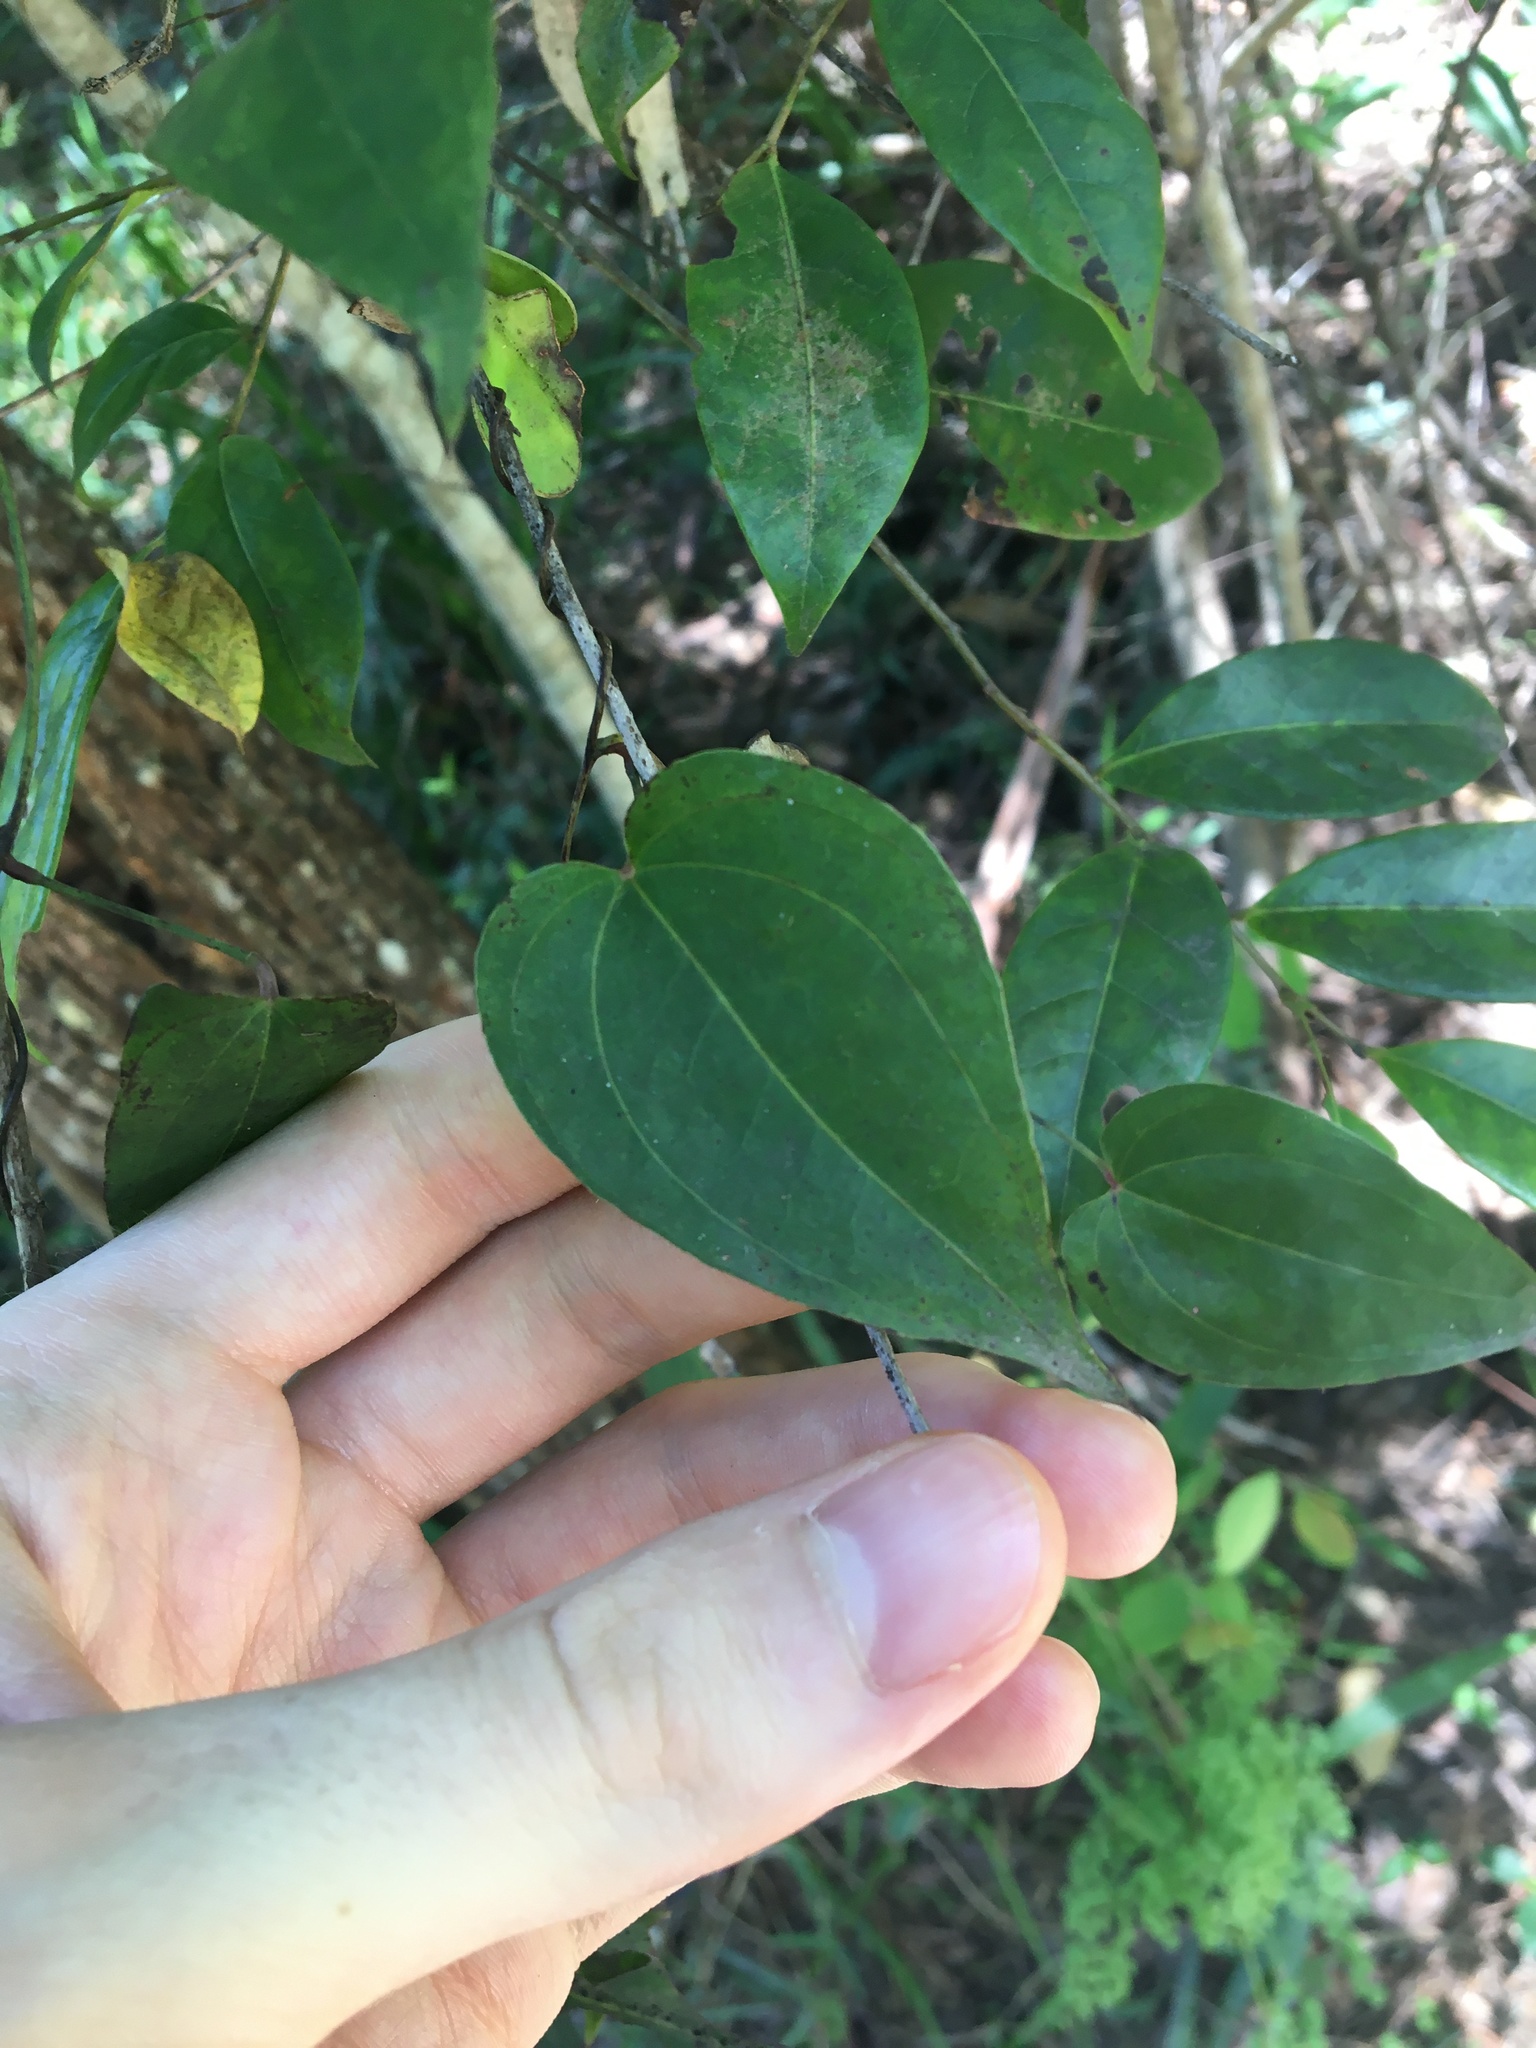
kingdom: Plantae
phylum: Tracheophyta
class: Liliopsida
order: Dioscoreales
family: Dioscoreaceae
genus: Dioscorea
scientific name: Dioscorea transversa
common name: Long yam
